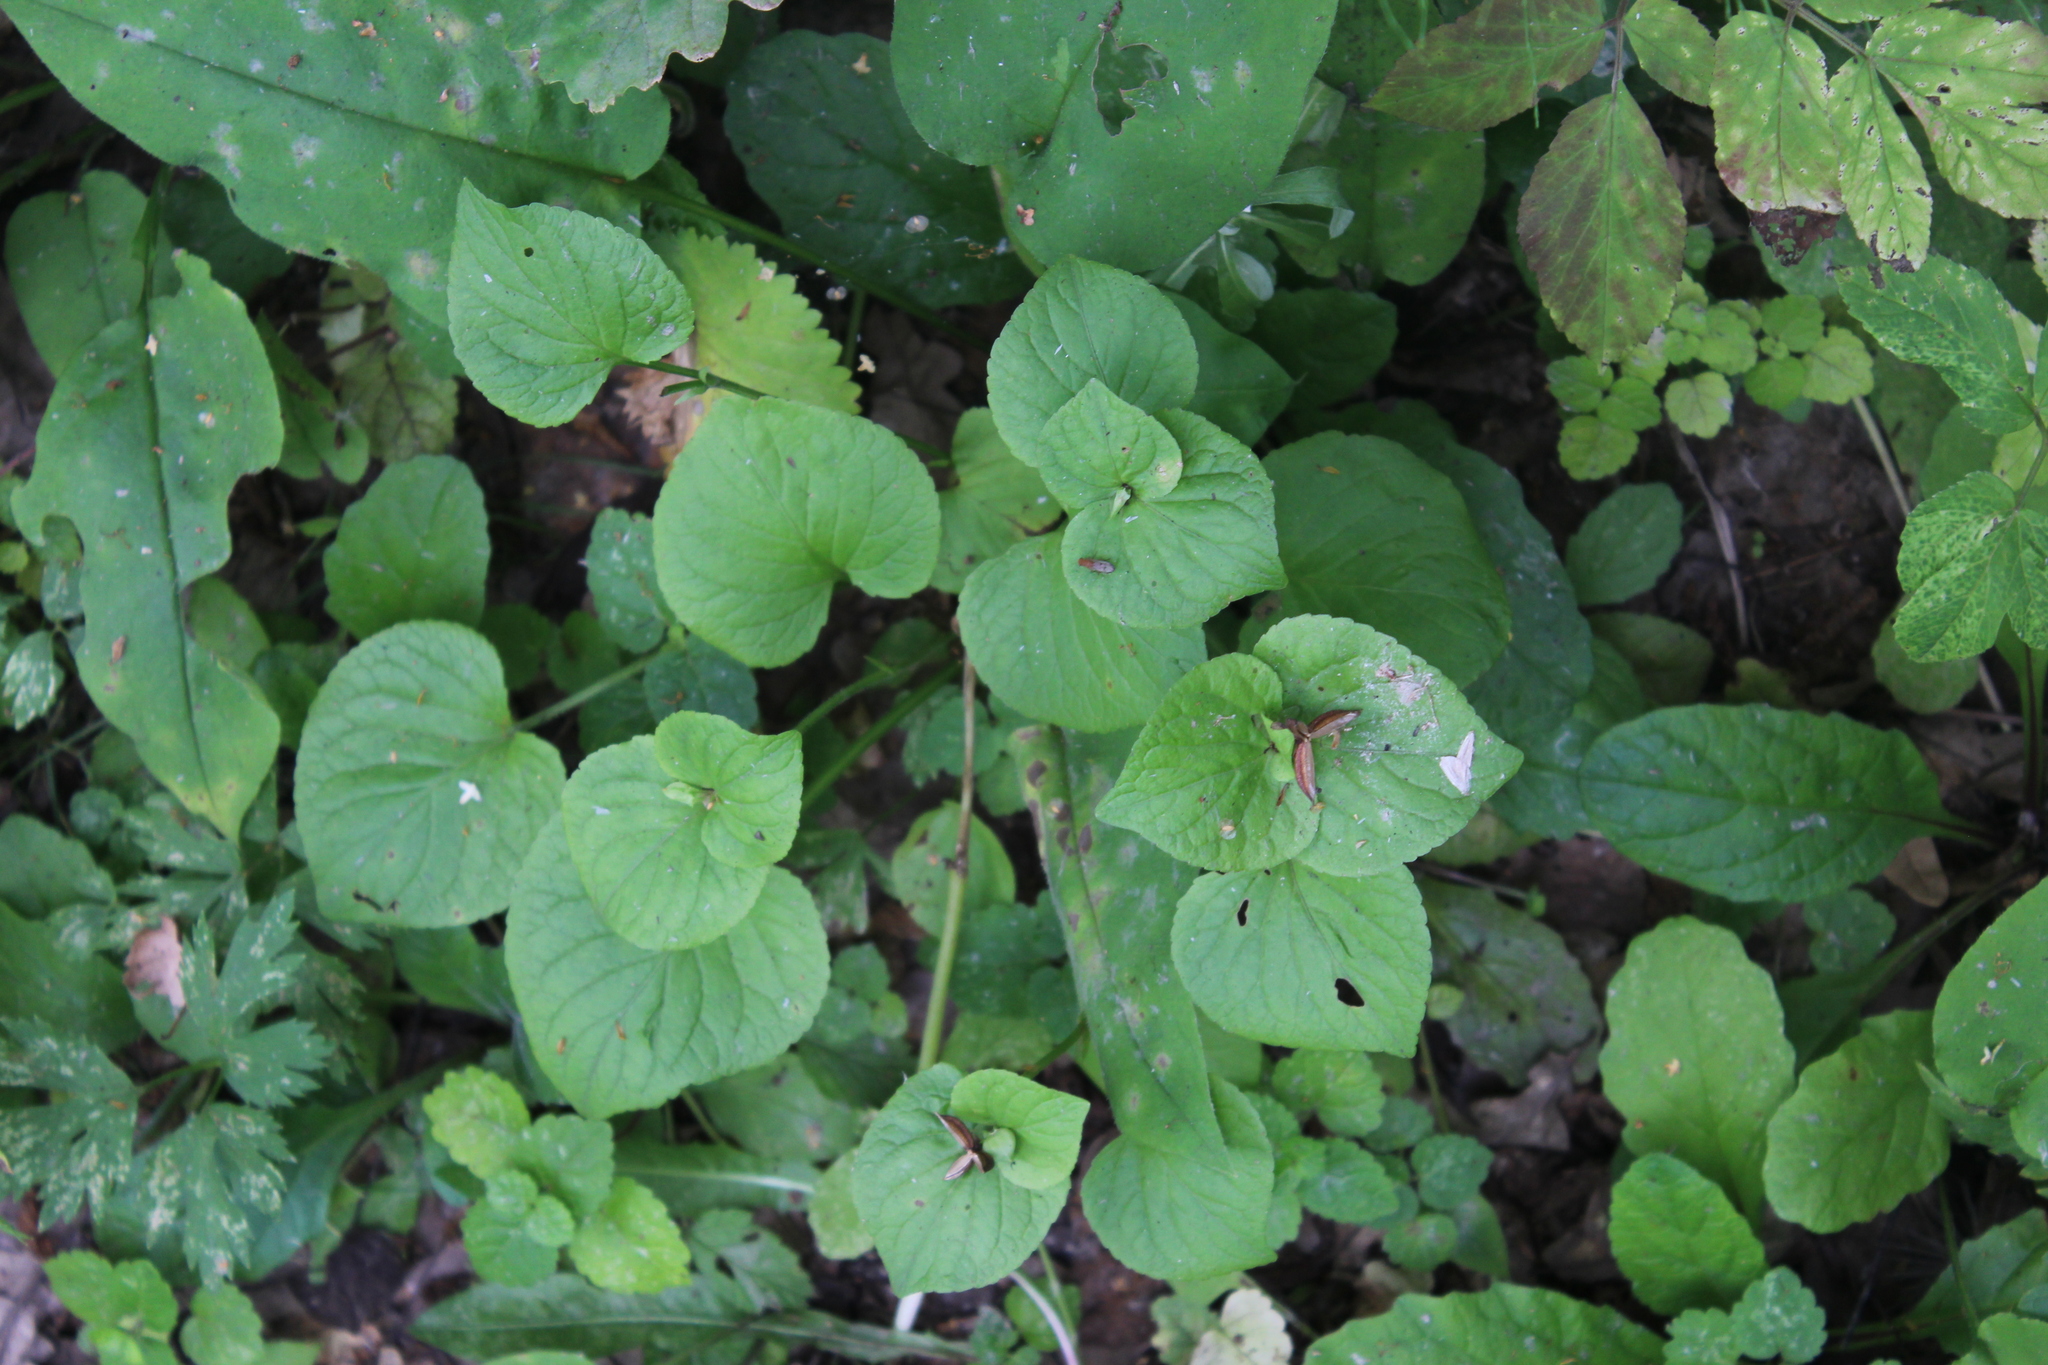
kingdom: Plantae
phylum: Tracheophyta
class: Magnoliopsida
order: Malpighiales
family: Violaceae
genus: Viola
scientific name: Viola mirabilis
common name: Wonder violet
